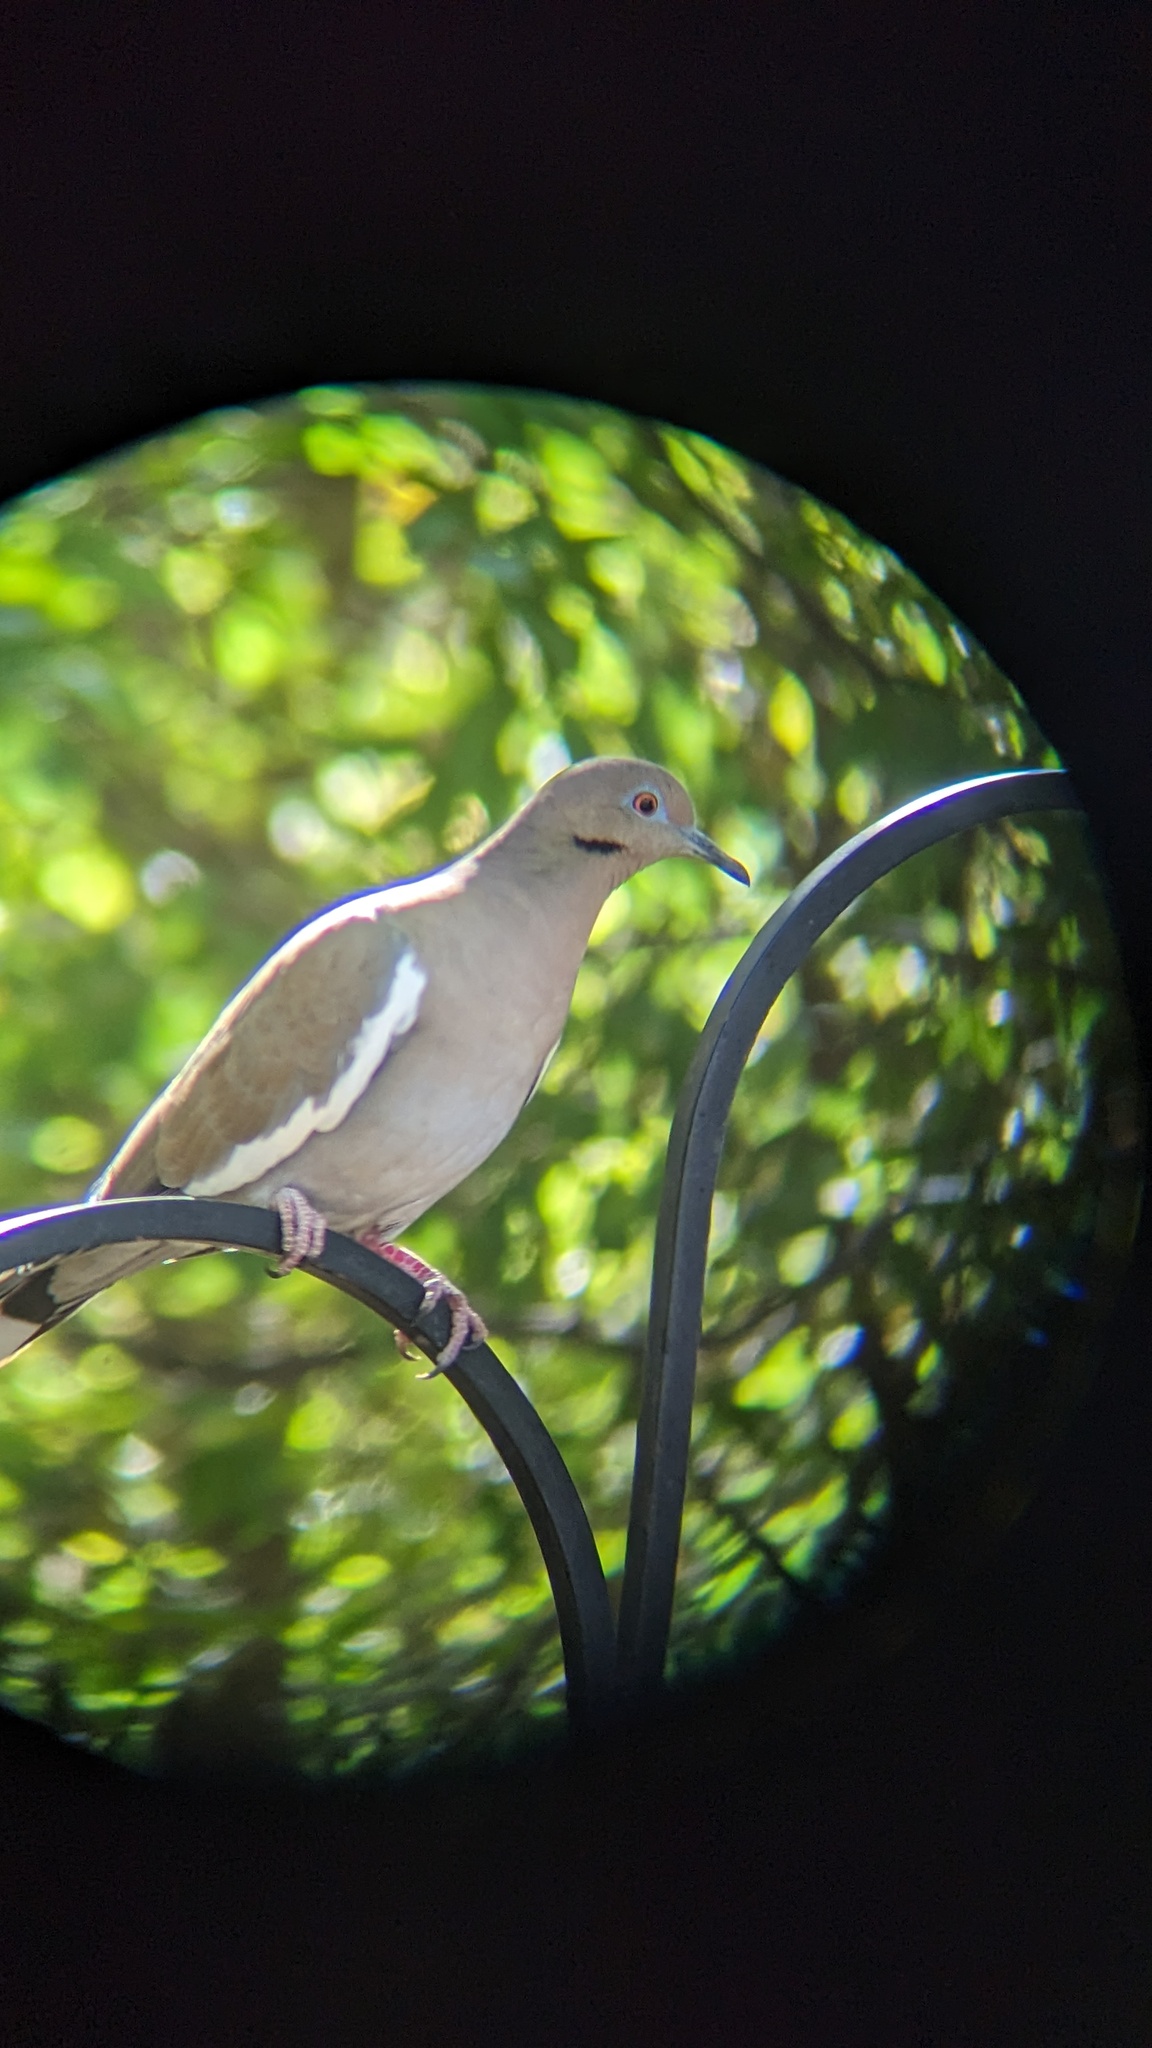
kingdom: Animalia
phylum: Chordata
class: Aves
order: Columbiformes
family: Columbidae
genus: Zenaida
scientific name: Zenaida asiatica
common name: White-winged dove
